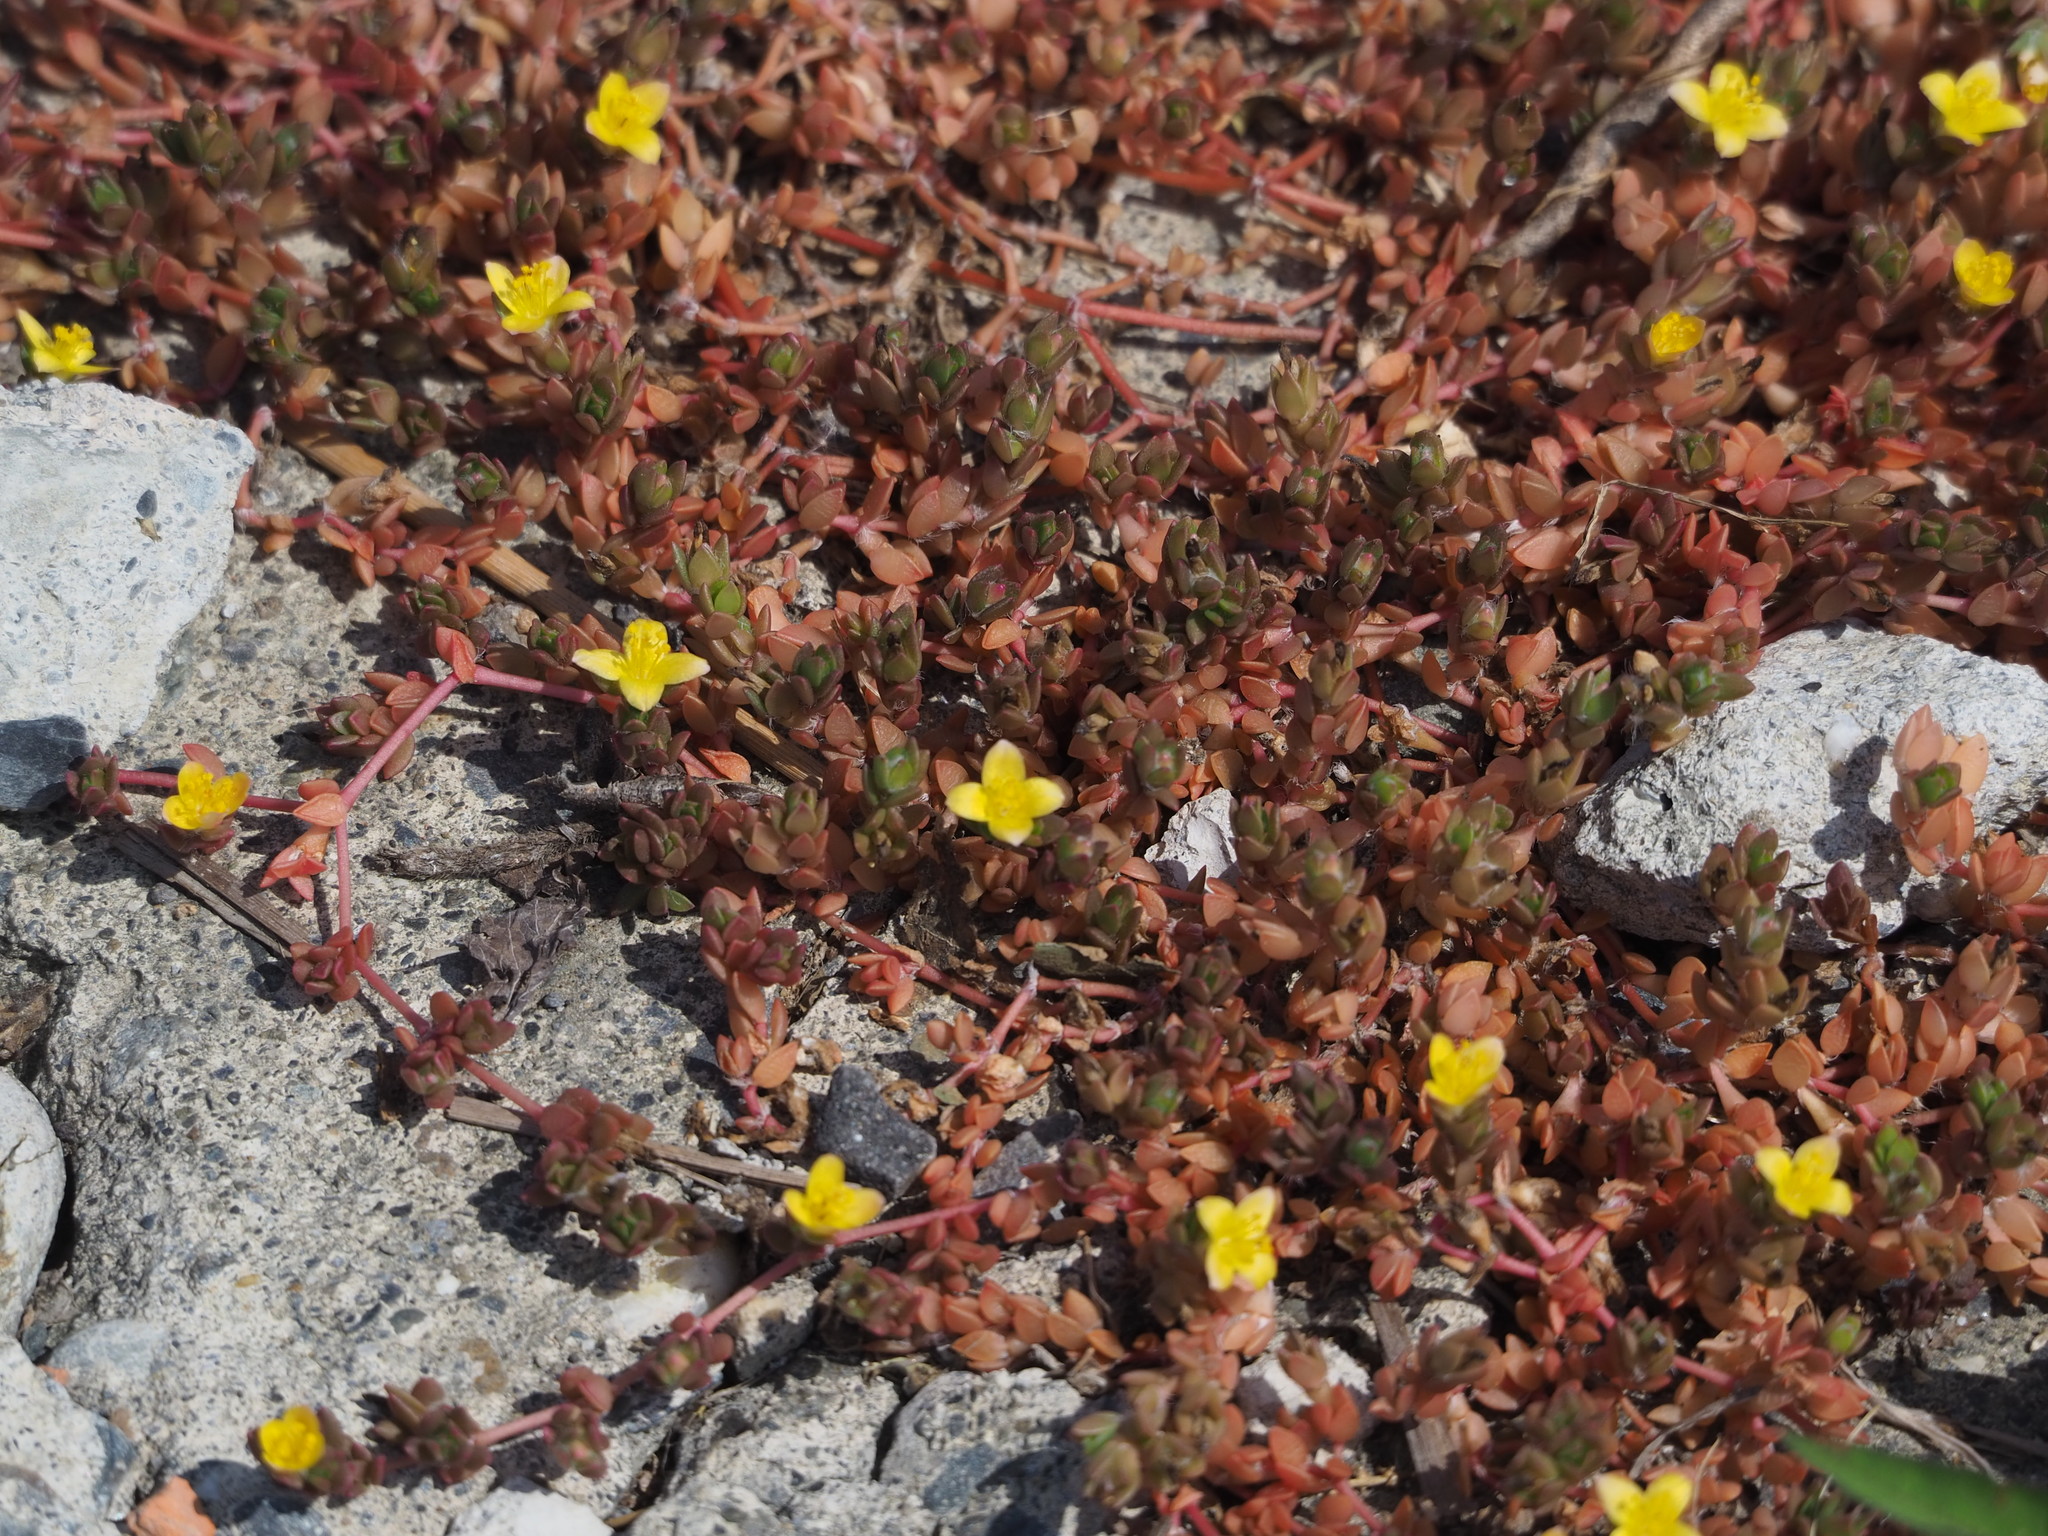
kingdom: Plantae
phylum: Tracheophyta
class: Magnoliopsida
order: Caryophyllales
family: Portulacaceae
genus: Portulaca
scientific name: Portulaca quadrifida
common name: Chickenweed
